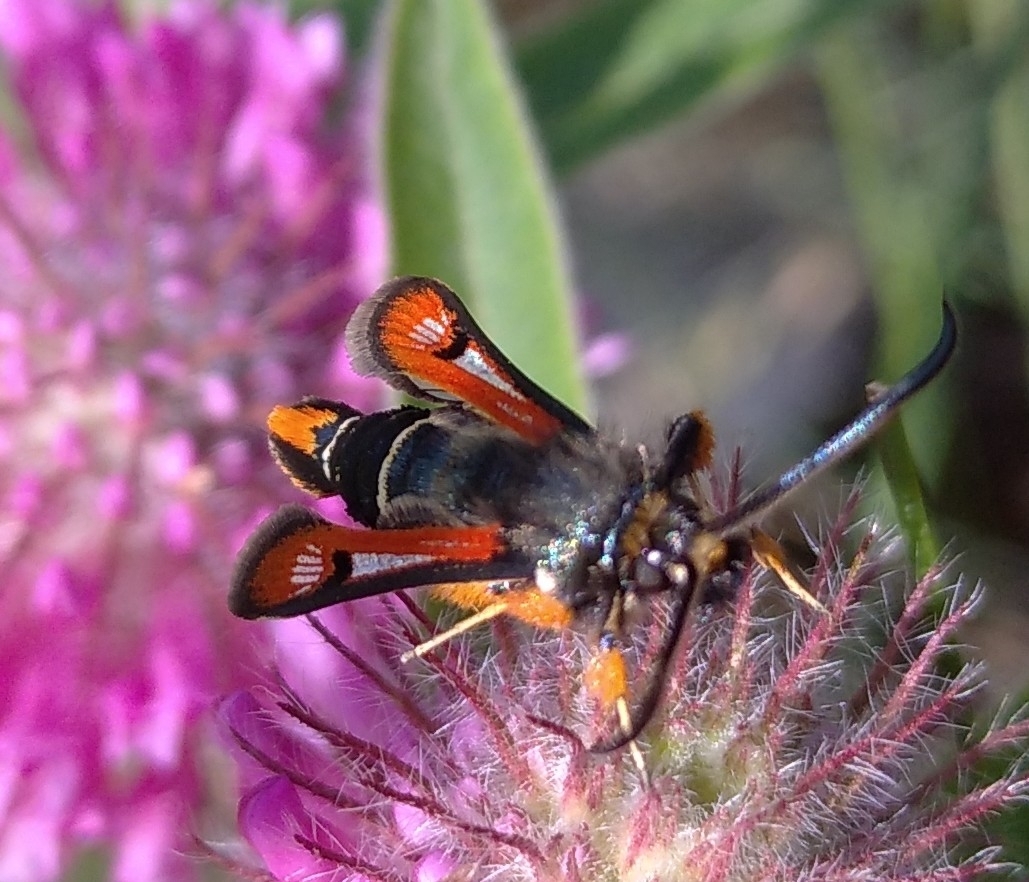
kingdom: Animalia
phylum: Arthropoda
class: Insecta
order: Lepidoptera
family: Sesiidae
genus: Pyropteron
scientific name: Pyropteron chrysidiforme
